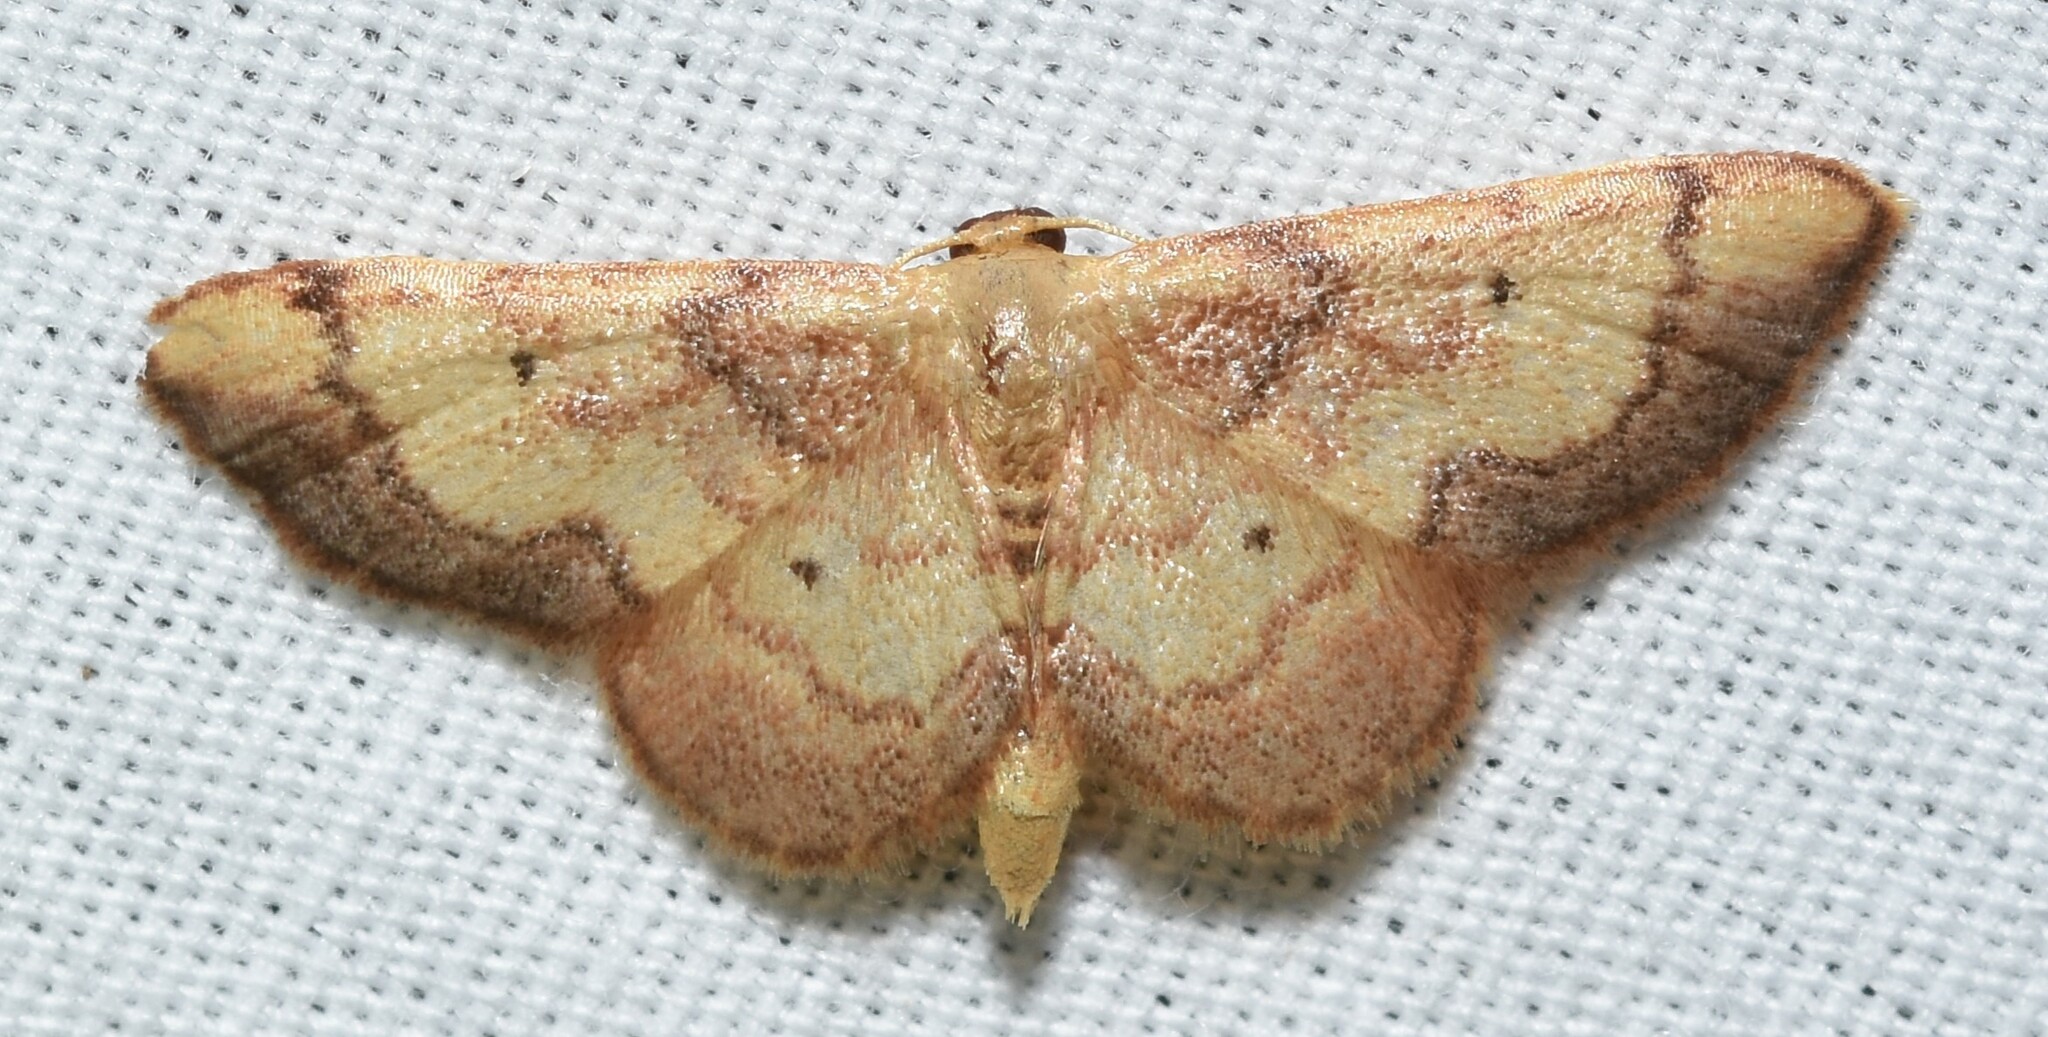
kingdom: Animalia
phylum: Arthropoda
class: Insecta
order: Lepidoptera
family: Geometridae
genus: Idaea
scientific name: Idaea demissaria
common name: Red-bordered wave
